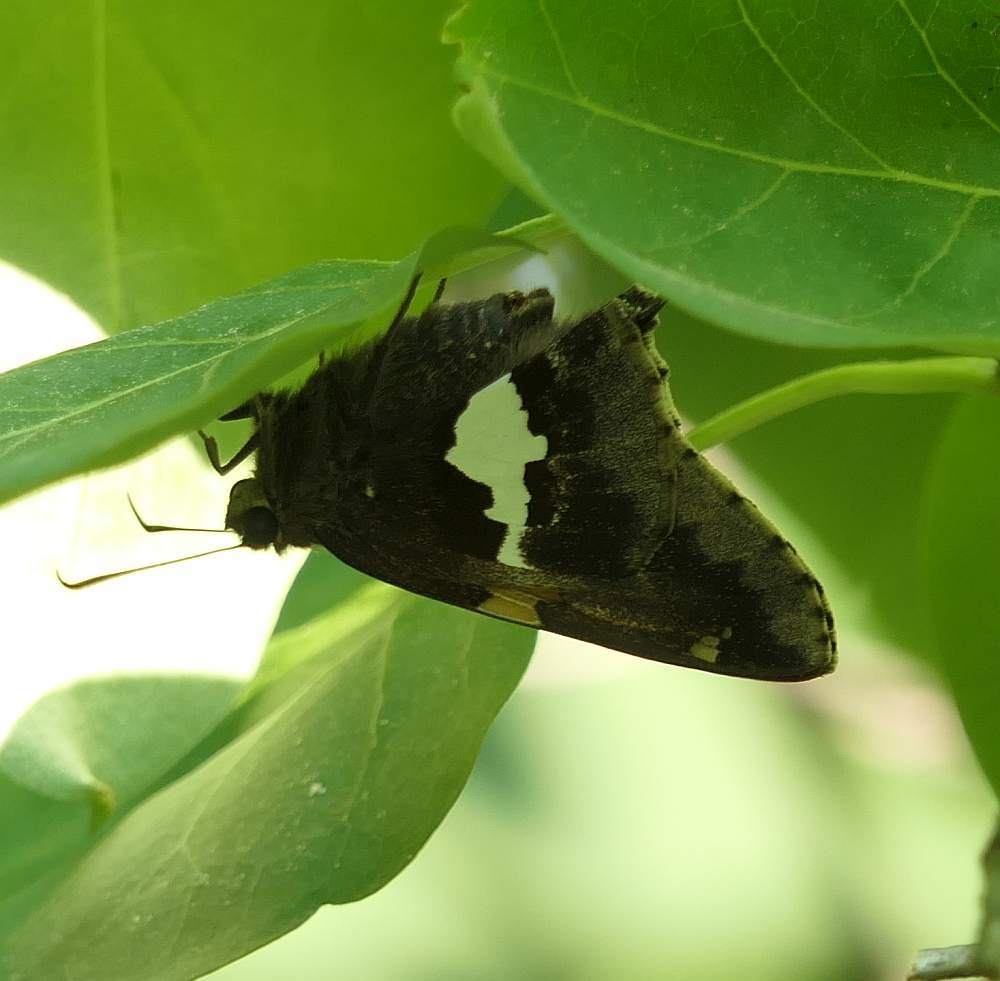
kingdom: Animalia
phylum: Arthropoda
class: Insecta
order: Lepidoptera
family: Hesperiidae
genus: Epargyreus
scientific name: Epargyreus clarus
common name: Silver-spotted skipper
